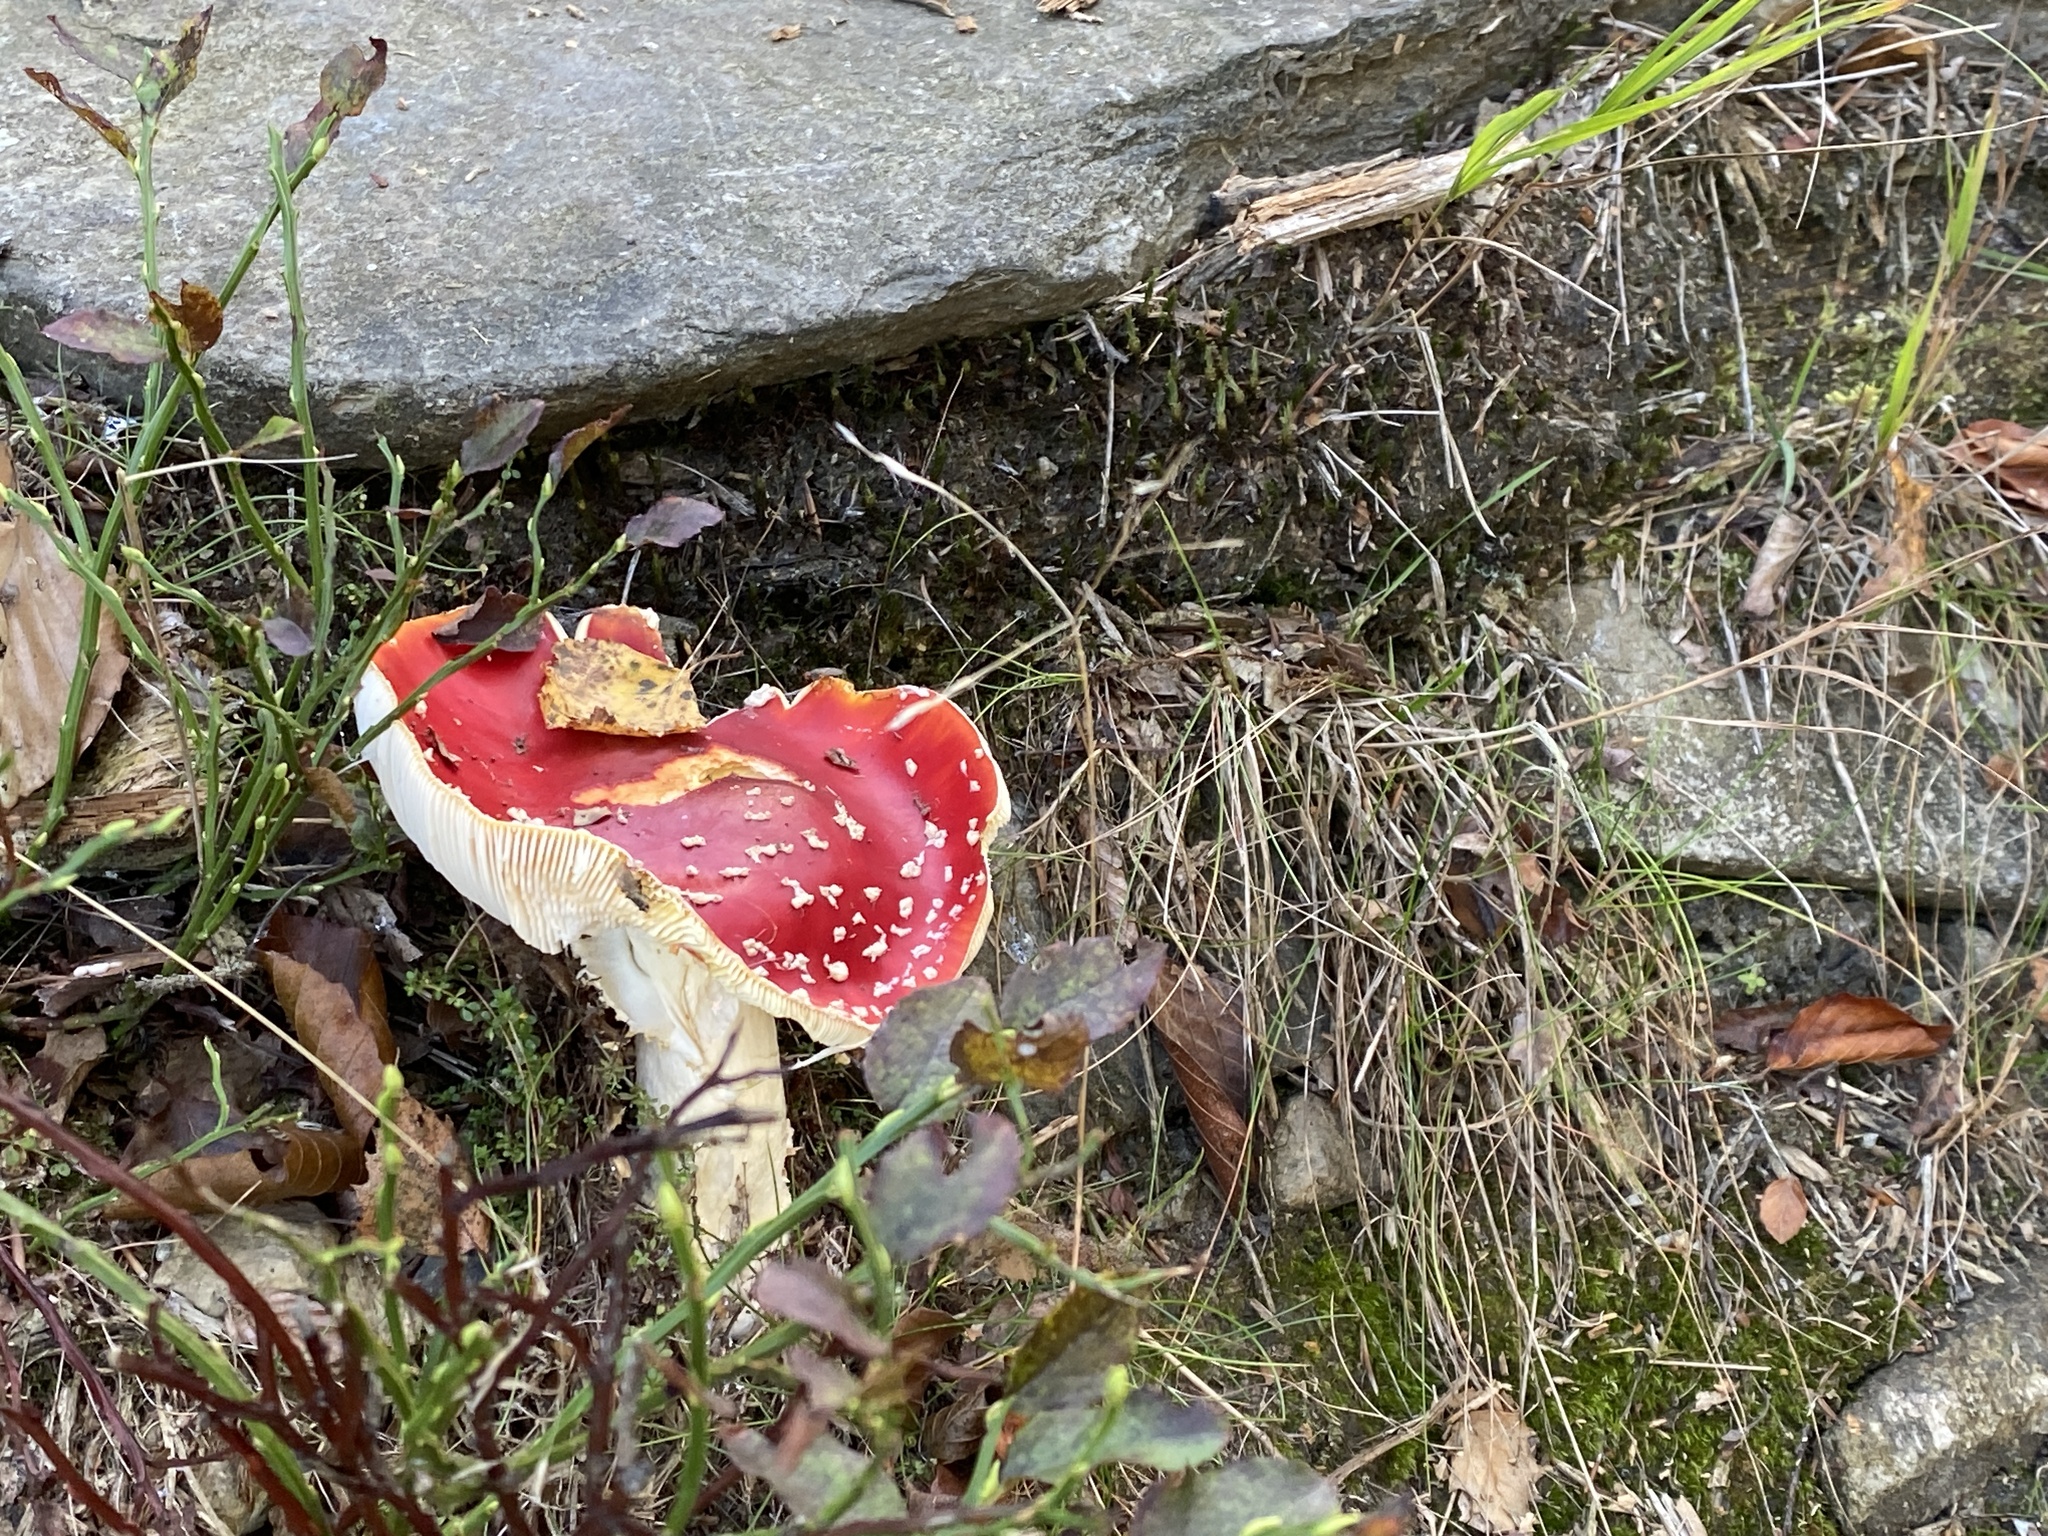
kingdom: Fungi
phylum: Basidiomycota
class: Agaricomycetes
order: Agaricales
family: Amanitaceae
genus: Amanita
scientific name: Amanita muscaria
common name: Fly agaric
